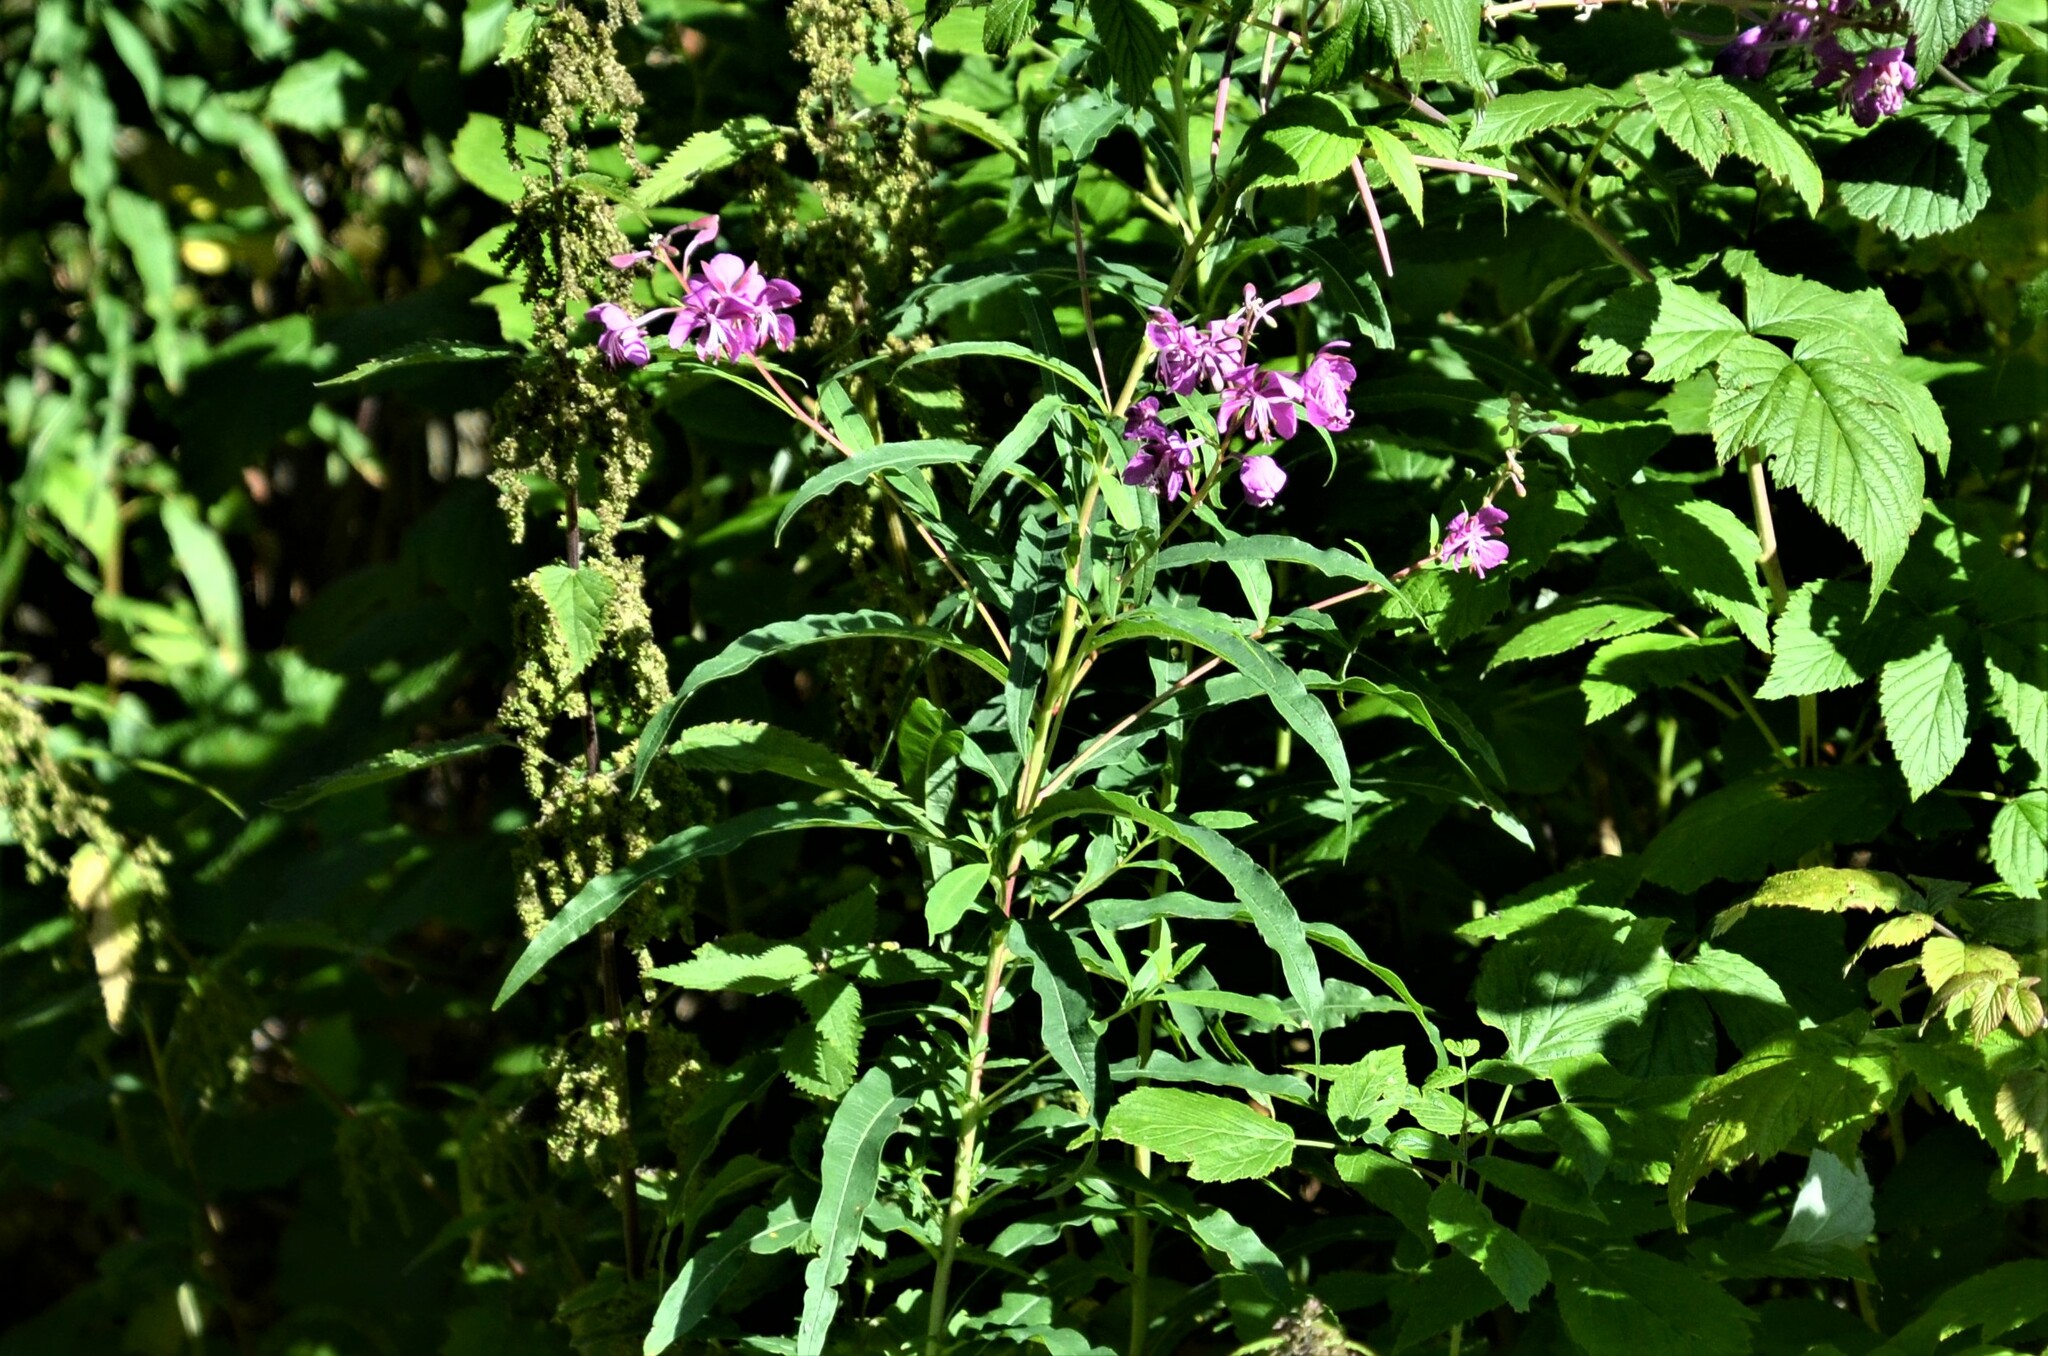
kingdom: Plantae
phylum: Tracheophyta
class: Magnoliopsida
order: Myrtales
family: Onagraceae
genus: Chamaenerion
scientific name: Chamaenerion angustifolium
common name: Fireweed
